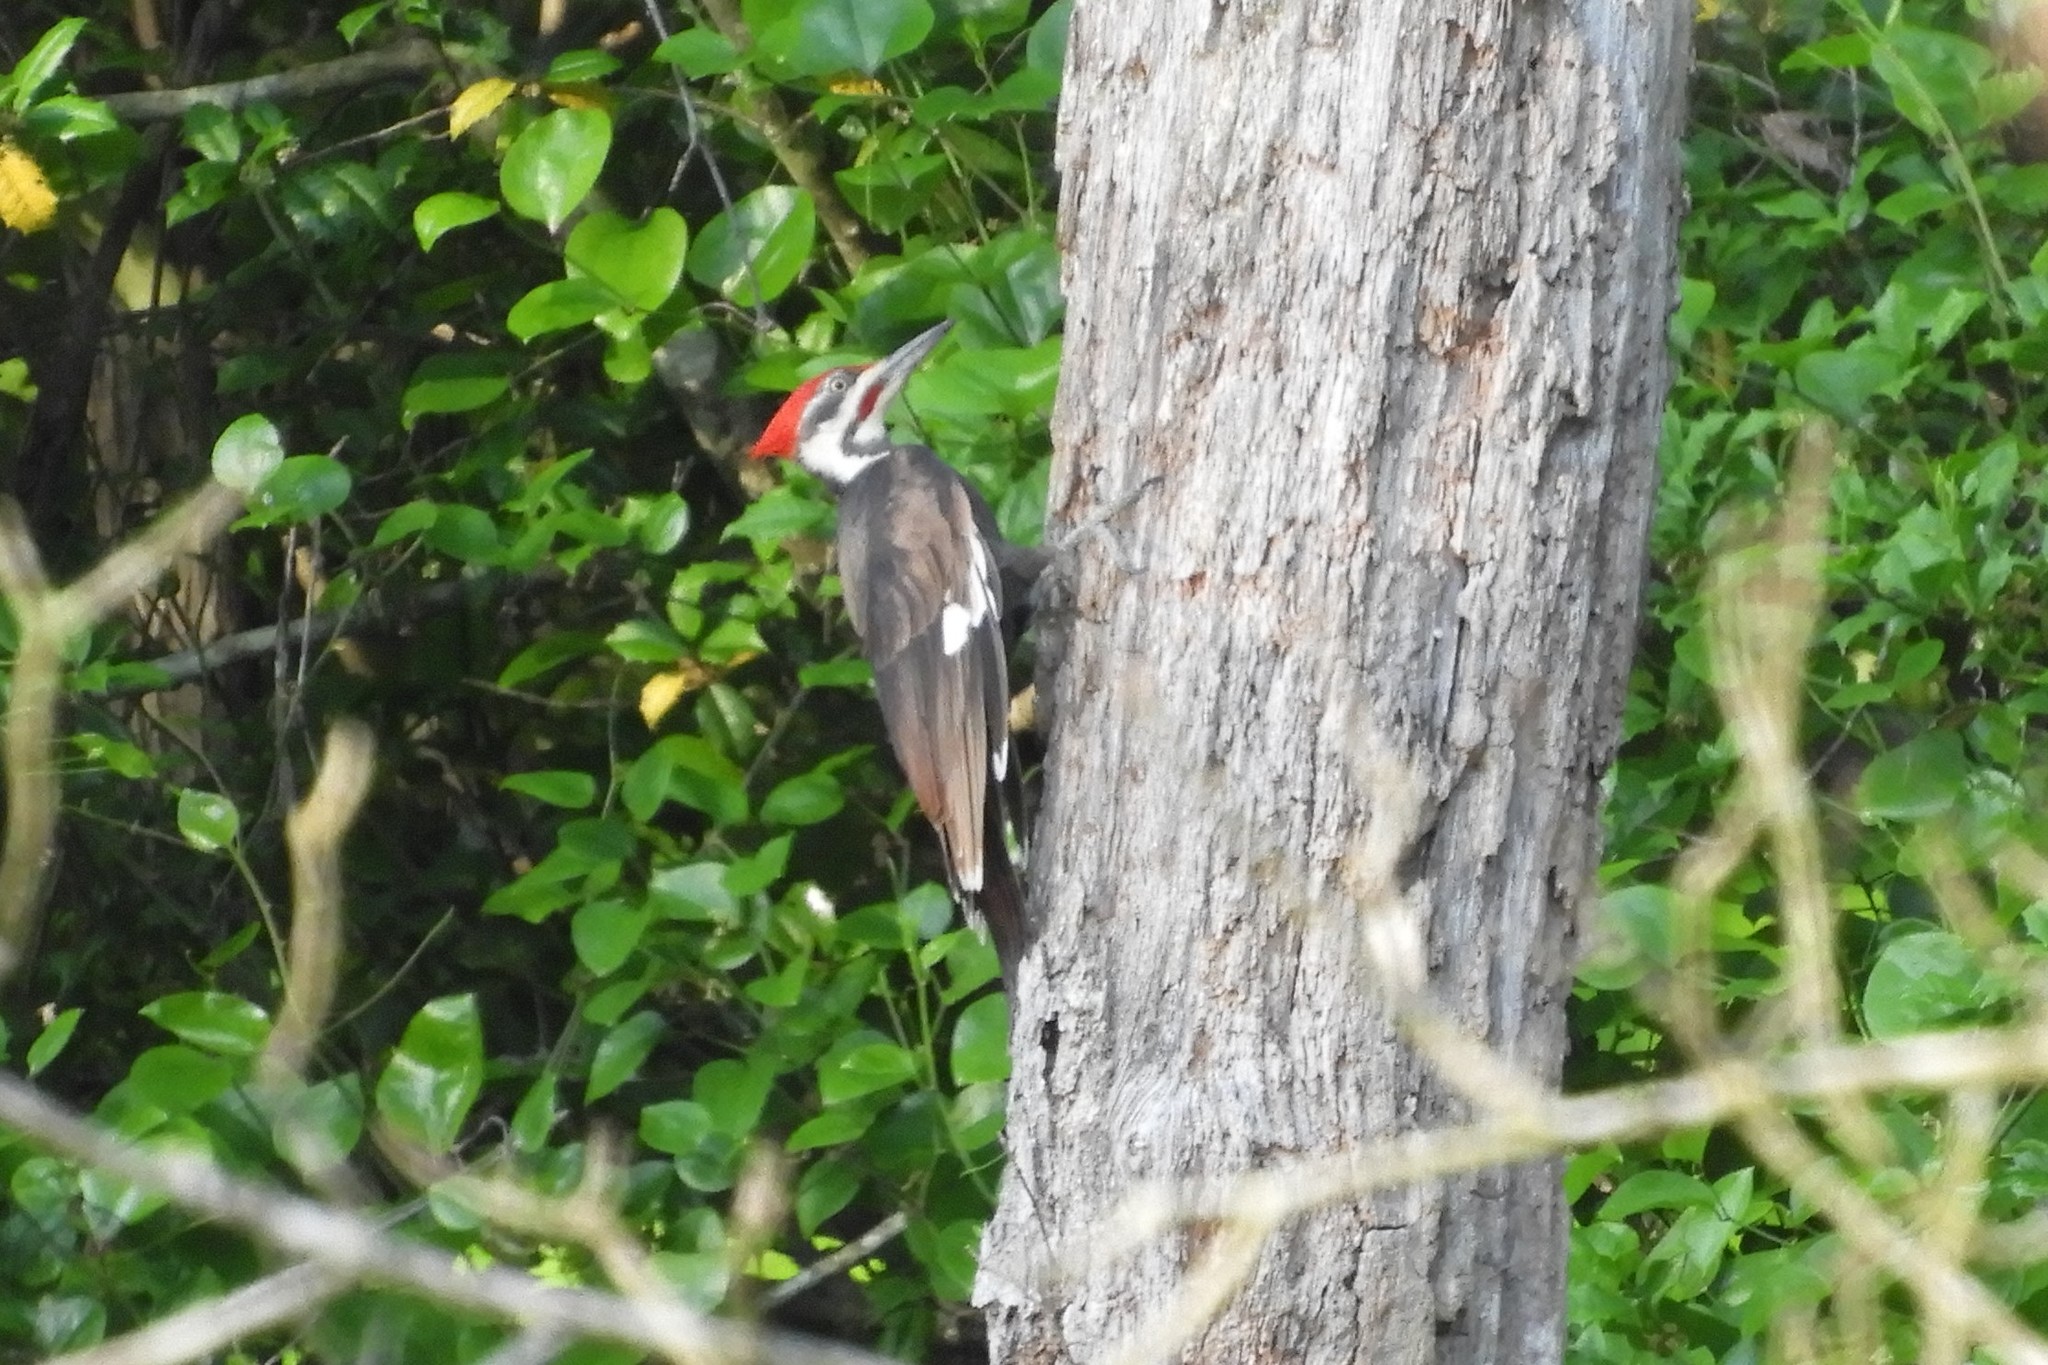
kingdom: Animalia
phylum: Chordata
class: Aves
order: Piciformes
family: Picidae
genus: Dryocopus
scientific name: Dryocopus pileatus
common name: Pileated woodpecker
